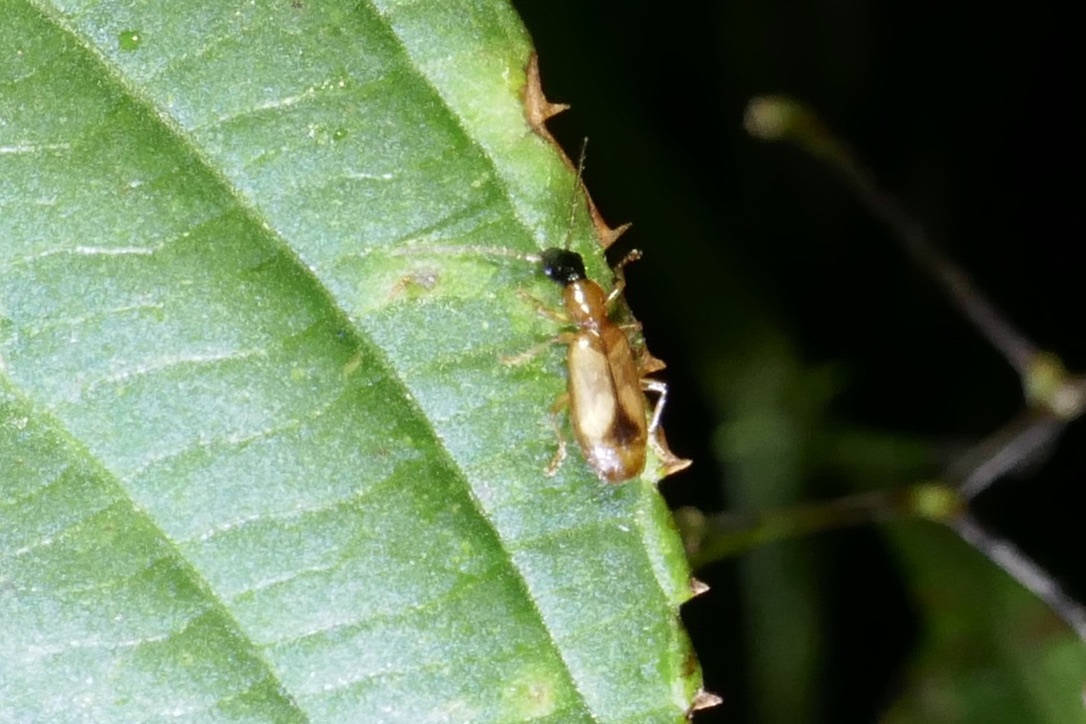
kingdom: Animalia
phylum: Arthropoda
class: Insecta
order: Coleoptera
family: Carabidae
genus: Demetrias
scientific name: Demetrias atricapillus
